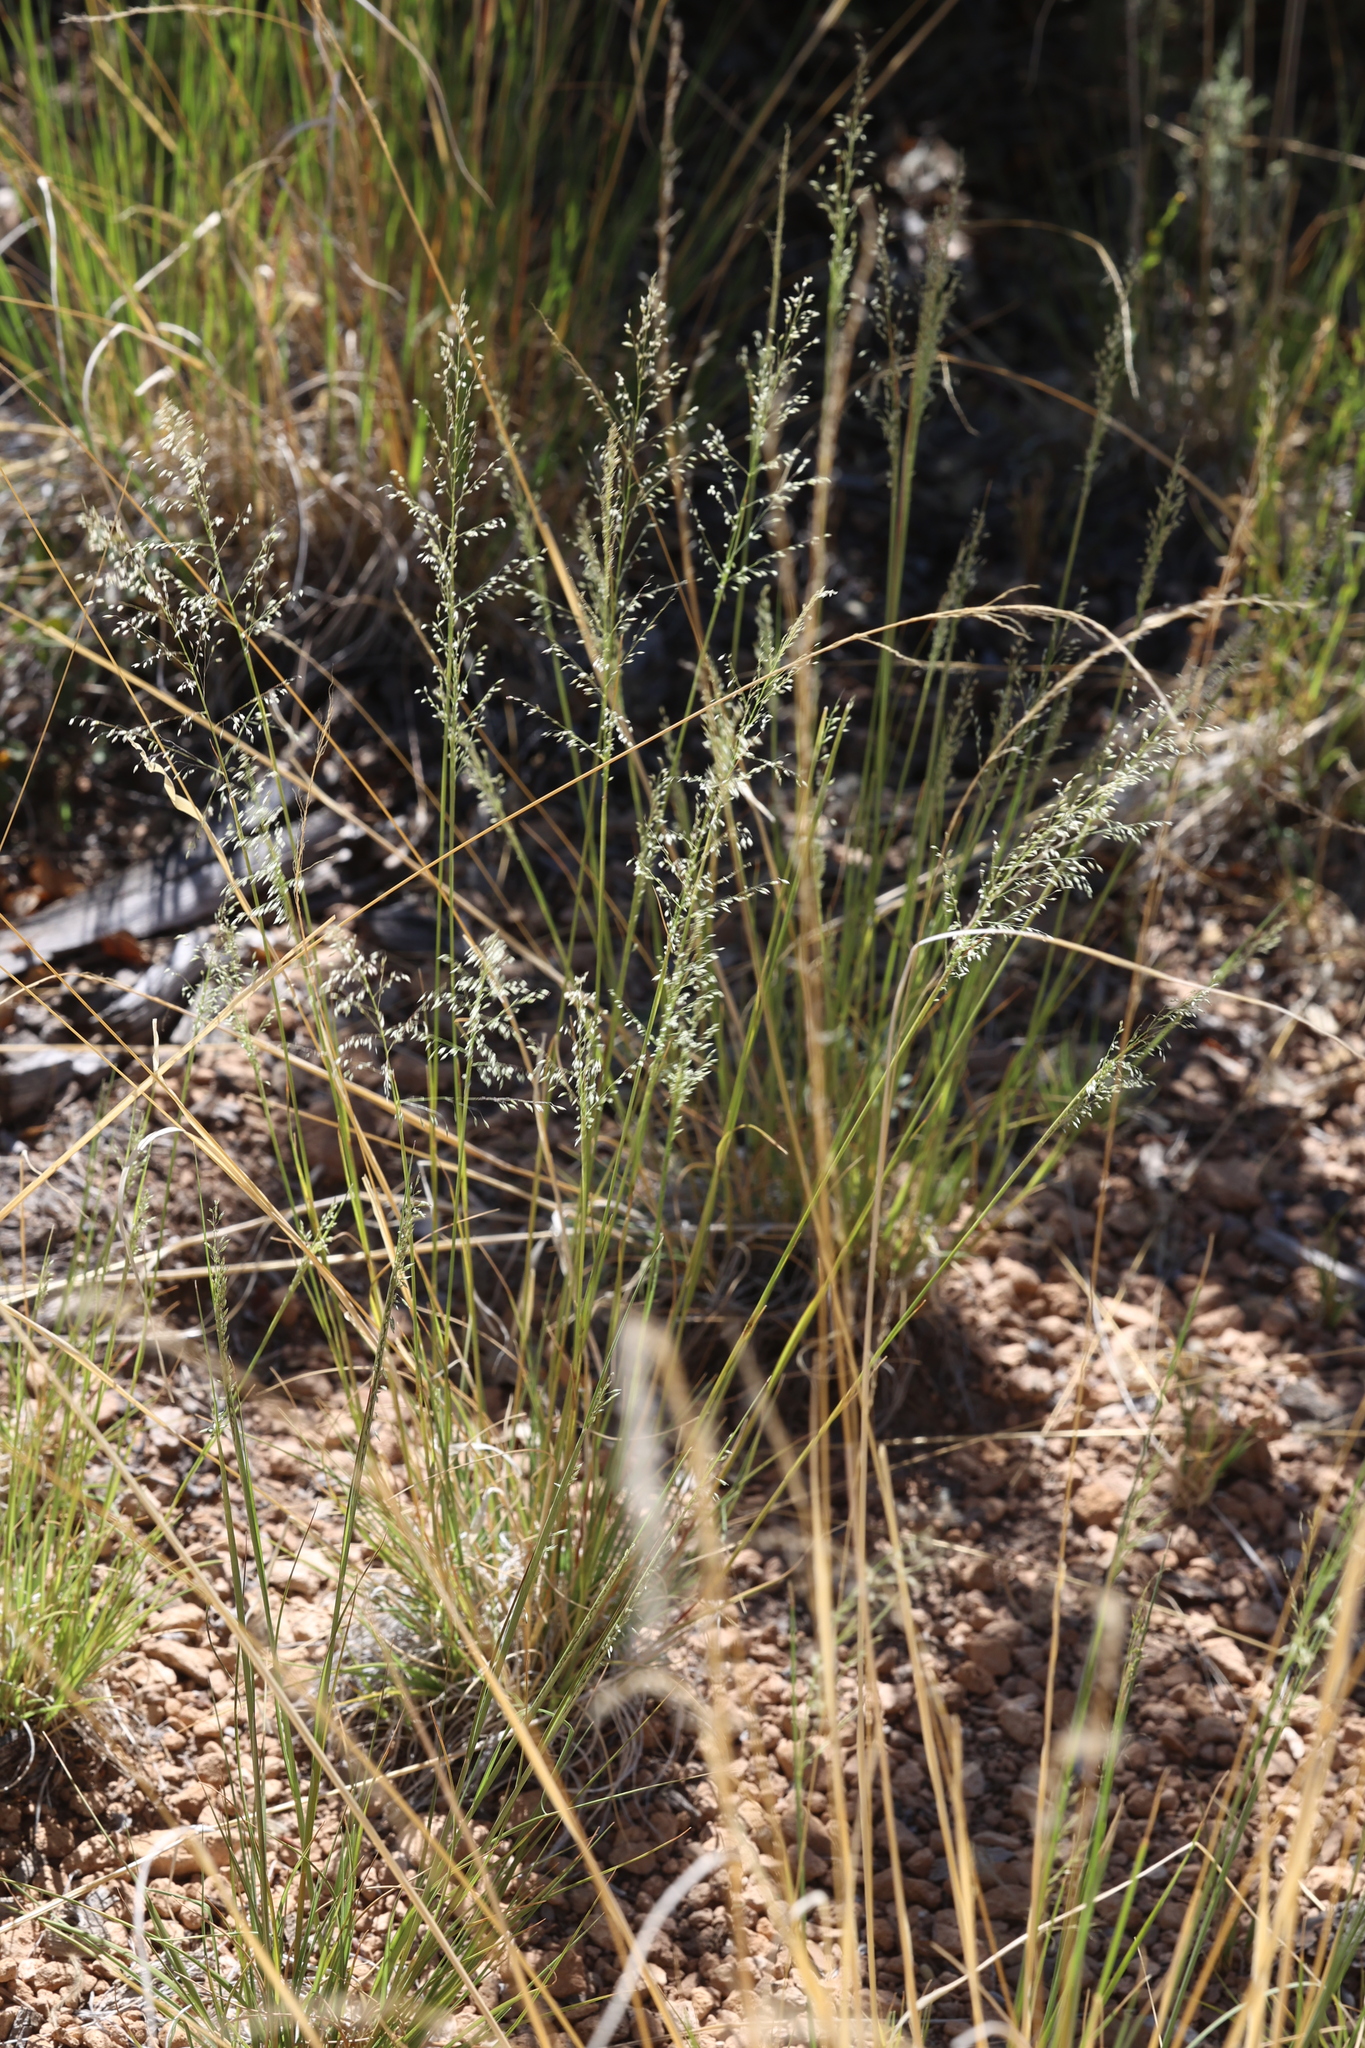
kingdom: Plantae
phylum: Tracheophyta
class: Liliopsida
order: Poales
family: Poaceae
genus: Muhlenbergia
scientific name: Muhlenbergia tricholepis
